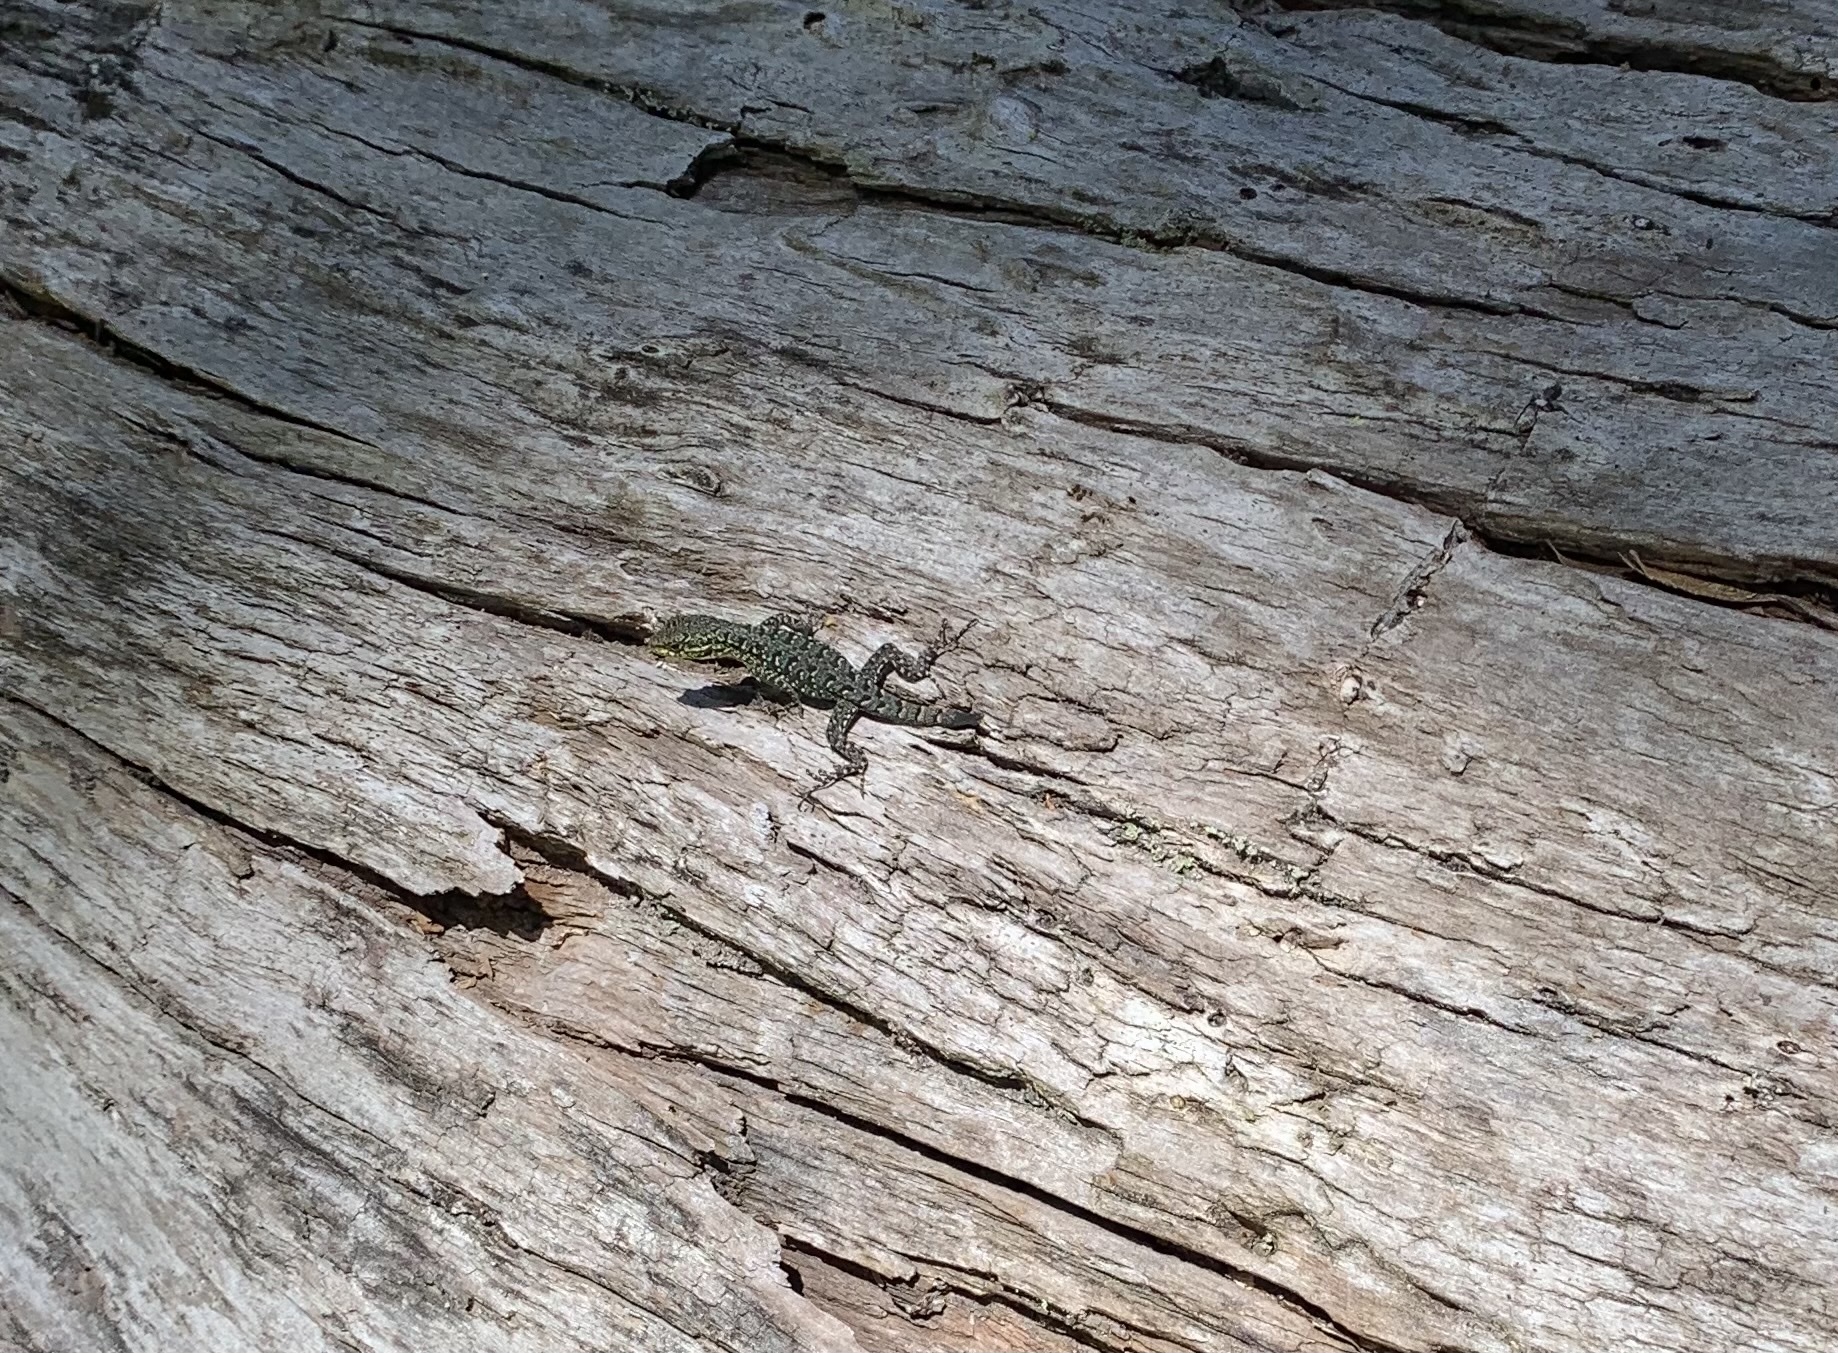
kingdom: Animalia
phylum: Chordata
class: Squamata
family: Liolaemidae
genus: Liolaemus
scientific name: Liolaemus tenuis
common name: Thin tree iguana
